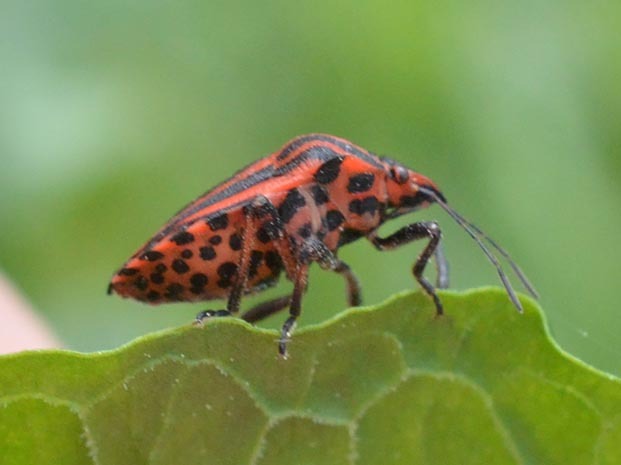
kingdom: Animalia
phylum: Arthropoda
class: Insecta
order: Hemiptera
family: Pentatomidae
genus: Graphosoma
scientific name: Graphosoma italicum
